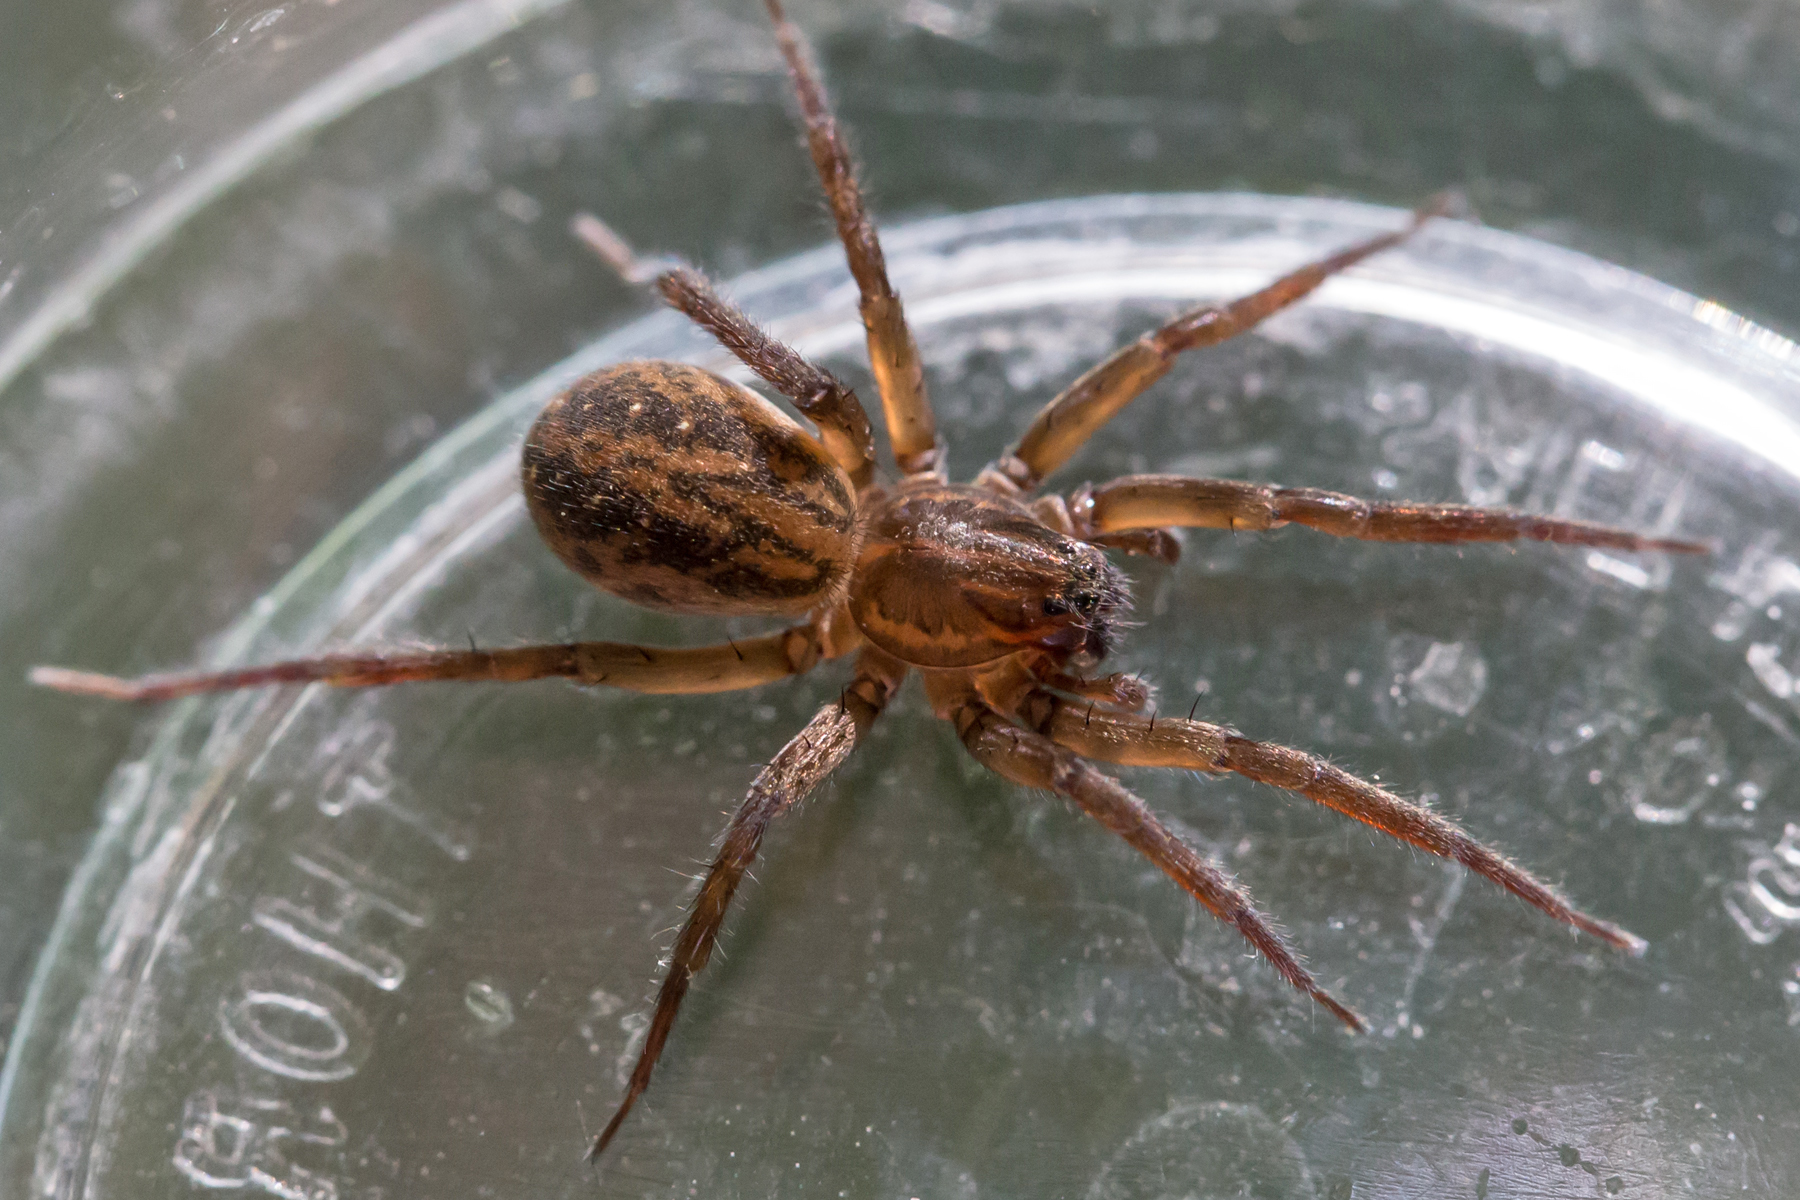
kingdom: Animalia
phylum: Arthropoda
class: Arachnida
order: Araneae
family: Lycosidae
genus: Trebacosa
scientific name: Trebacosa marxi
